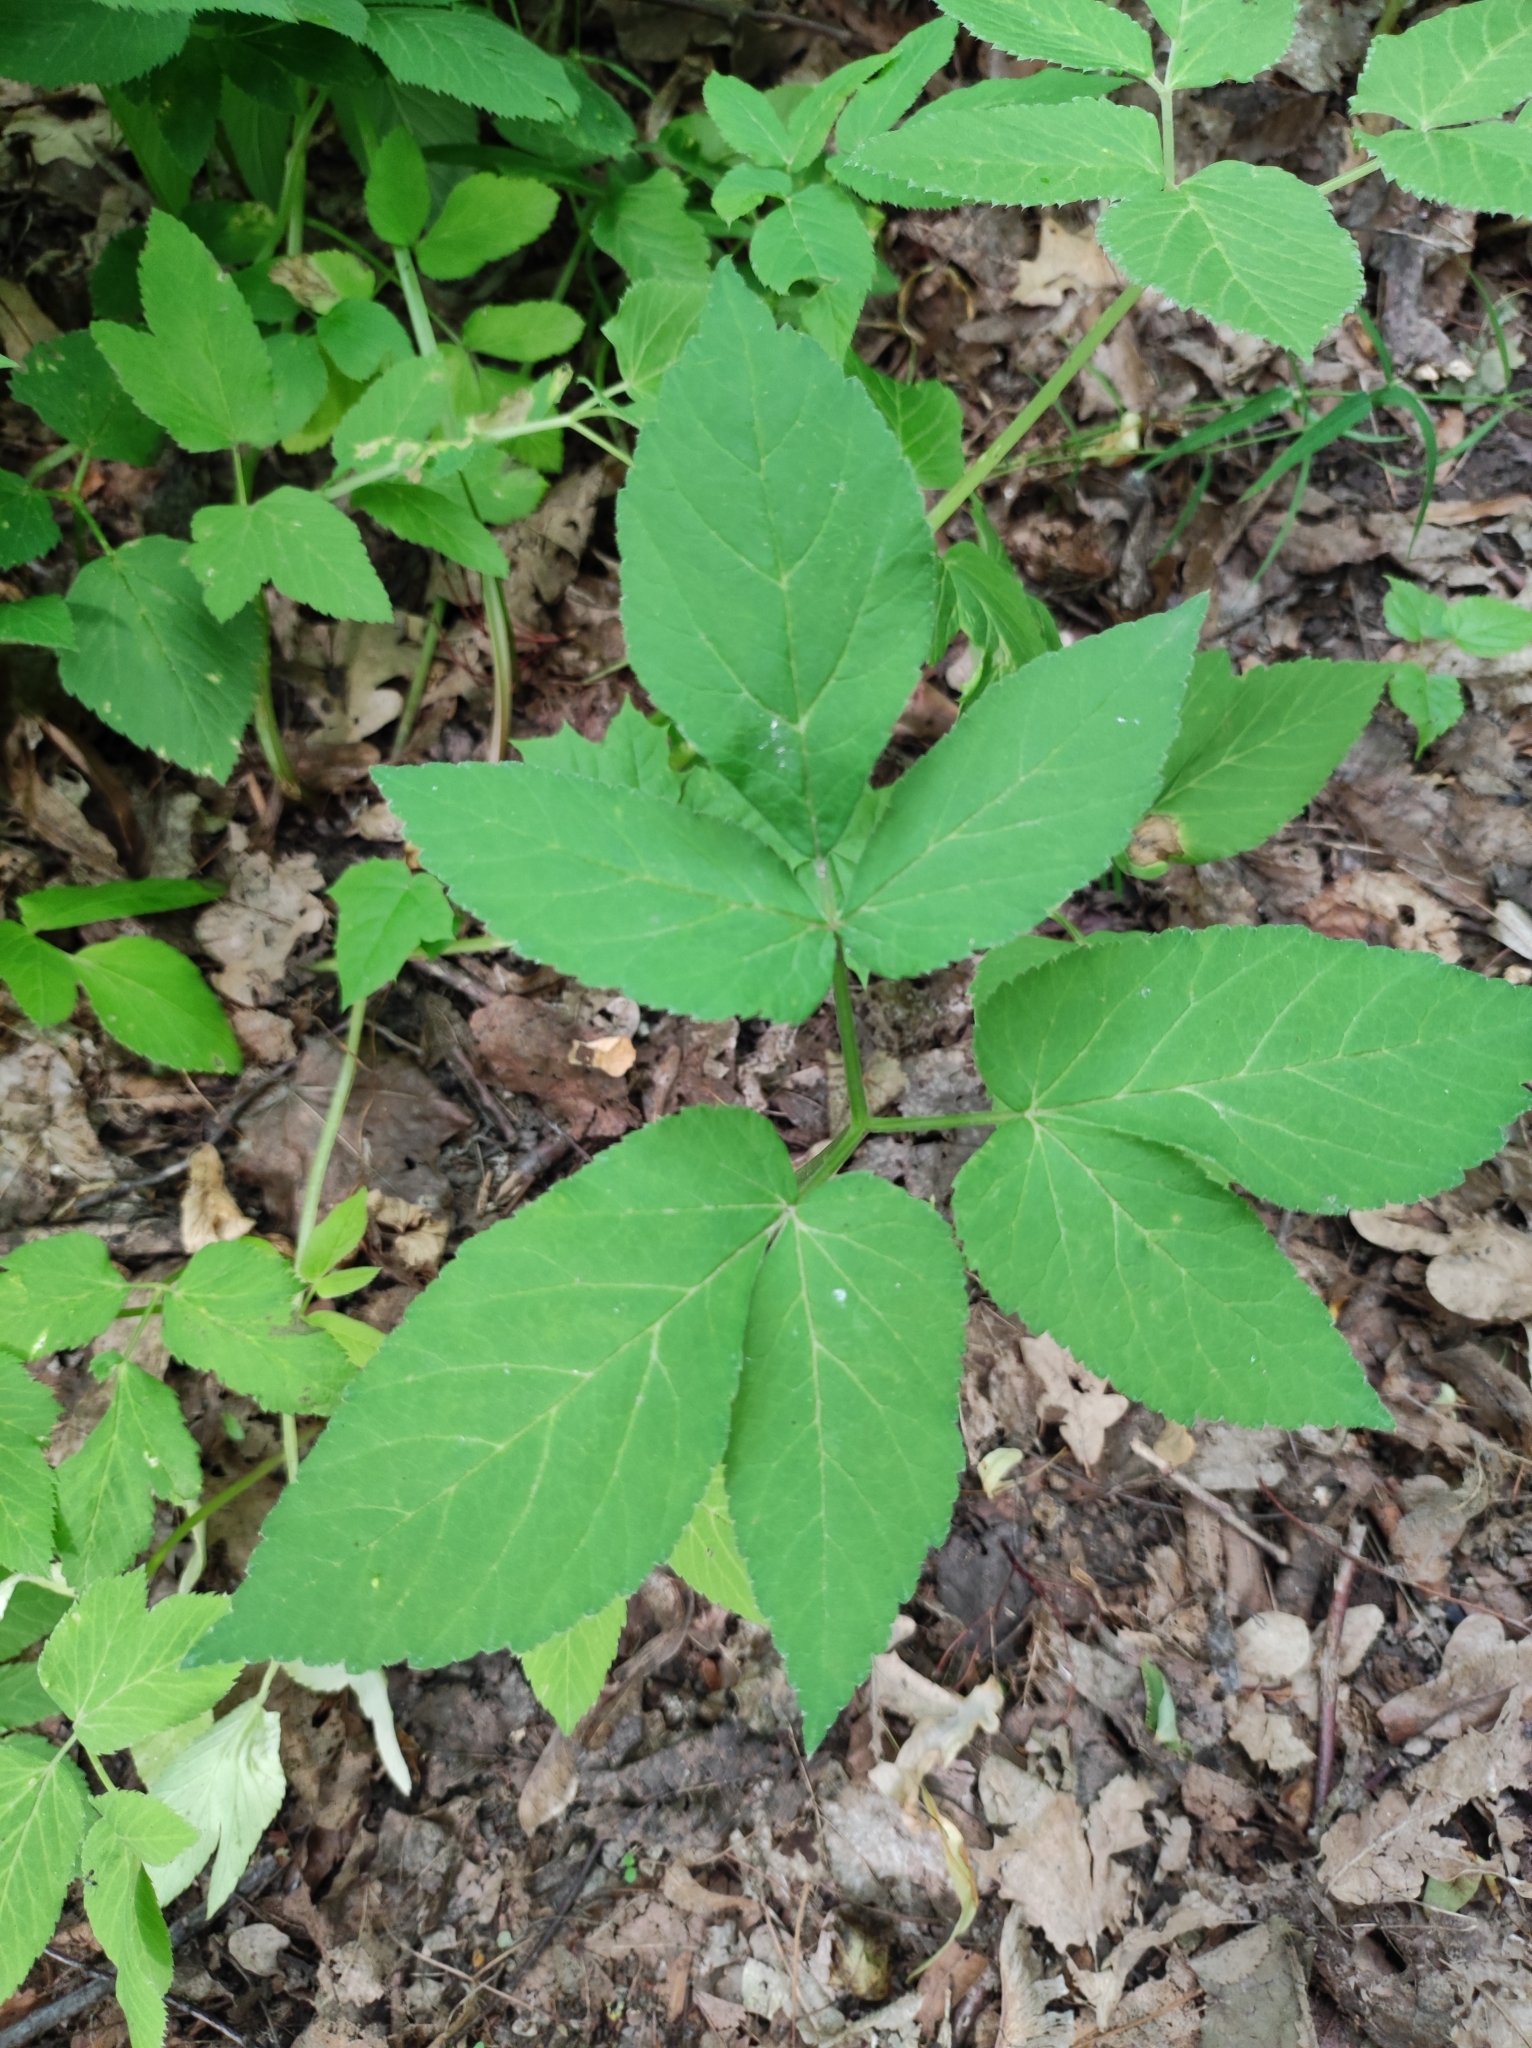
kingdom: Plantae
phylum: Tracheophyta
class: Magnoliopsida
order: Apiales
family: Apiaceae
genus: Aegopodium
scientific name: Aegopodium podagraria
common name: Ground-elder
